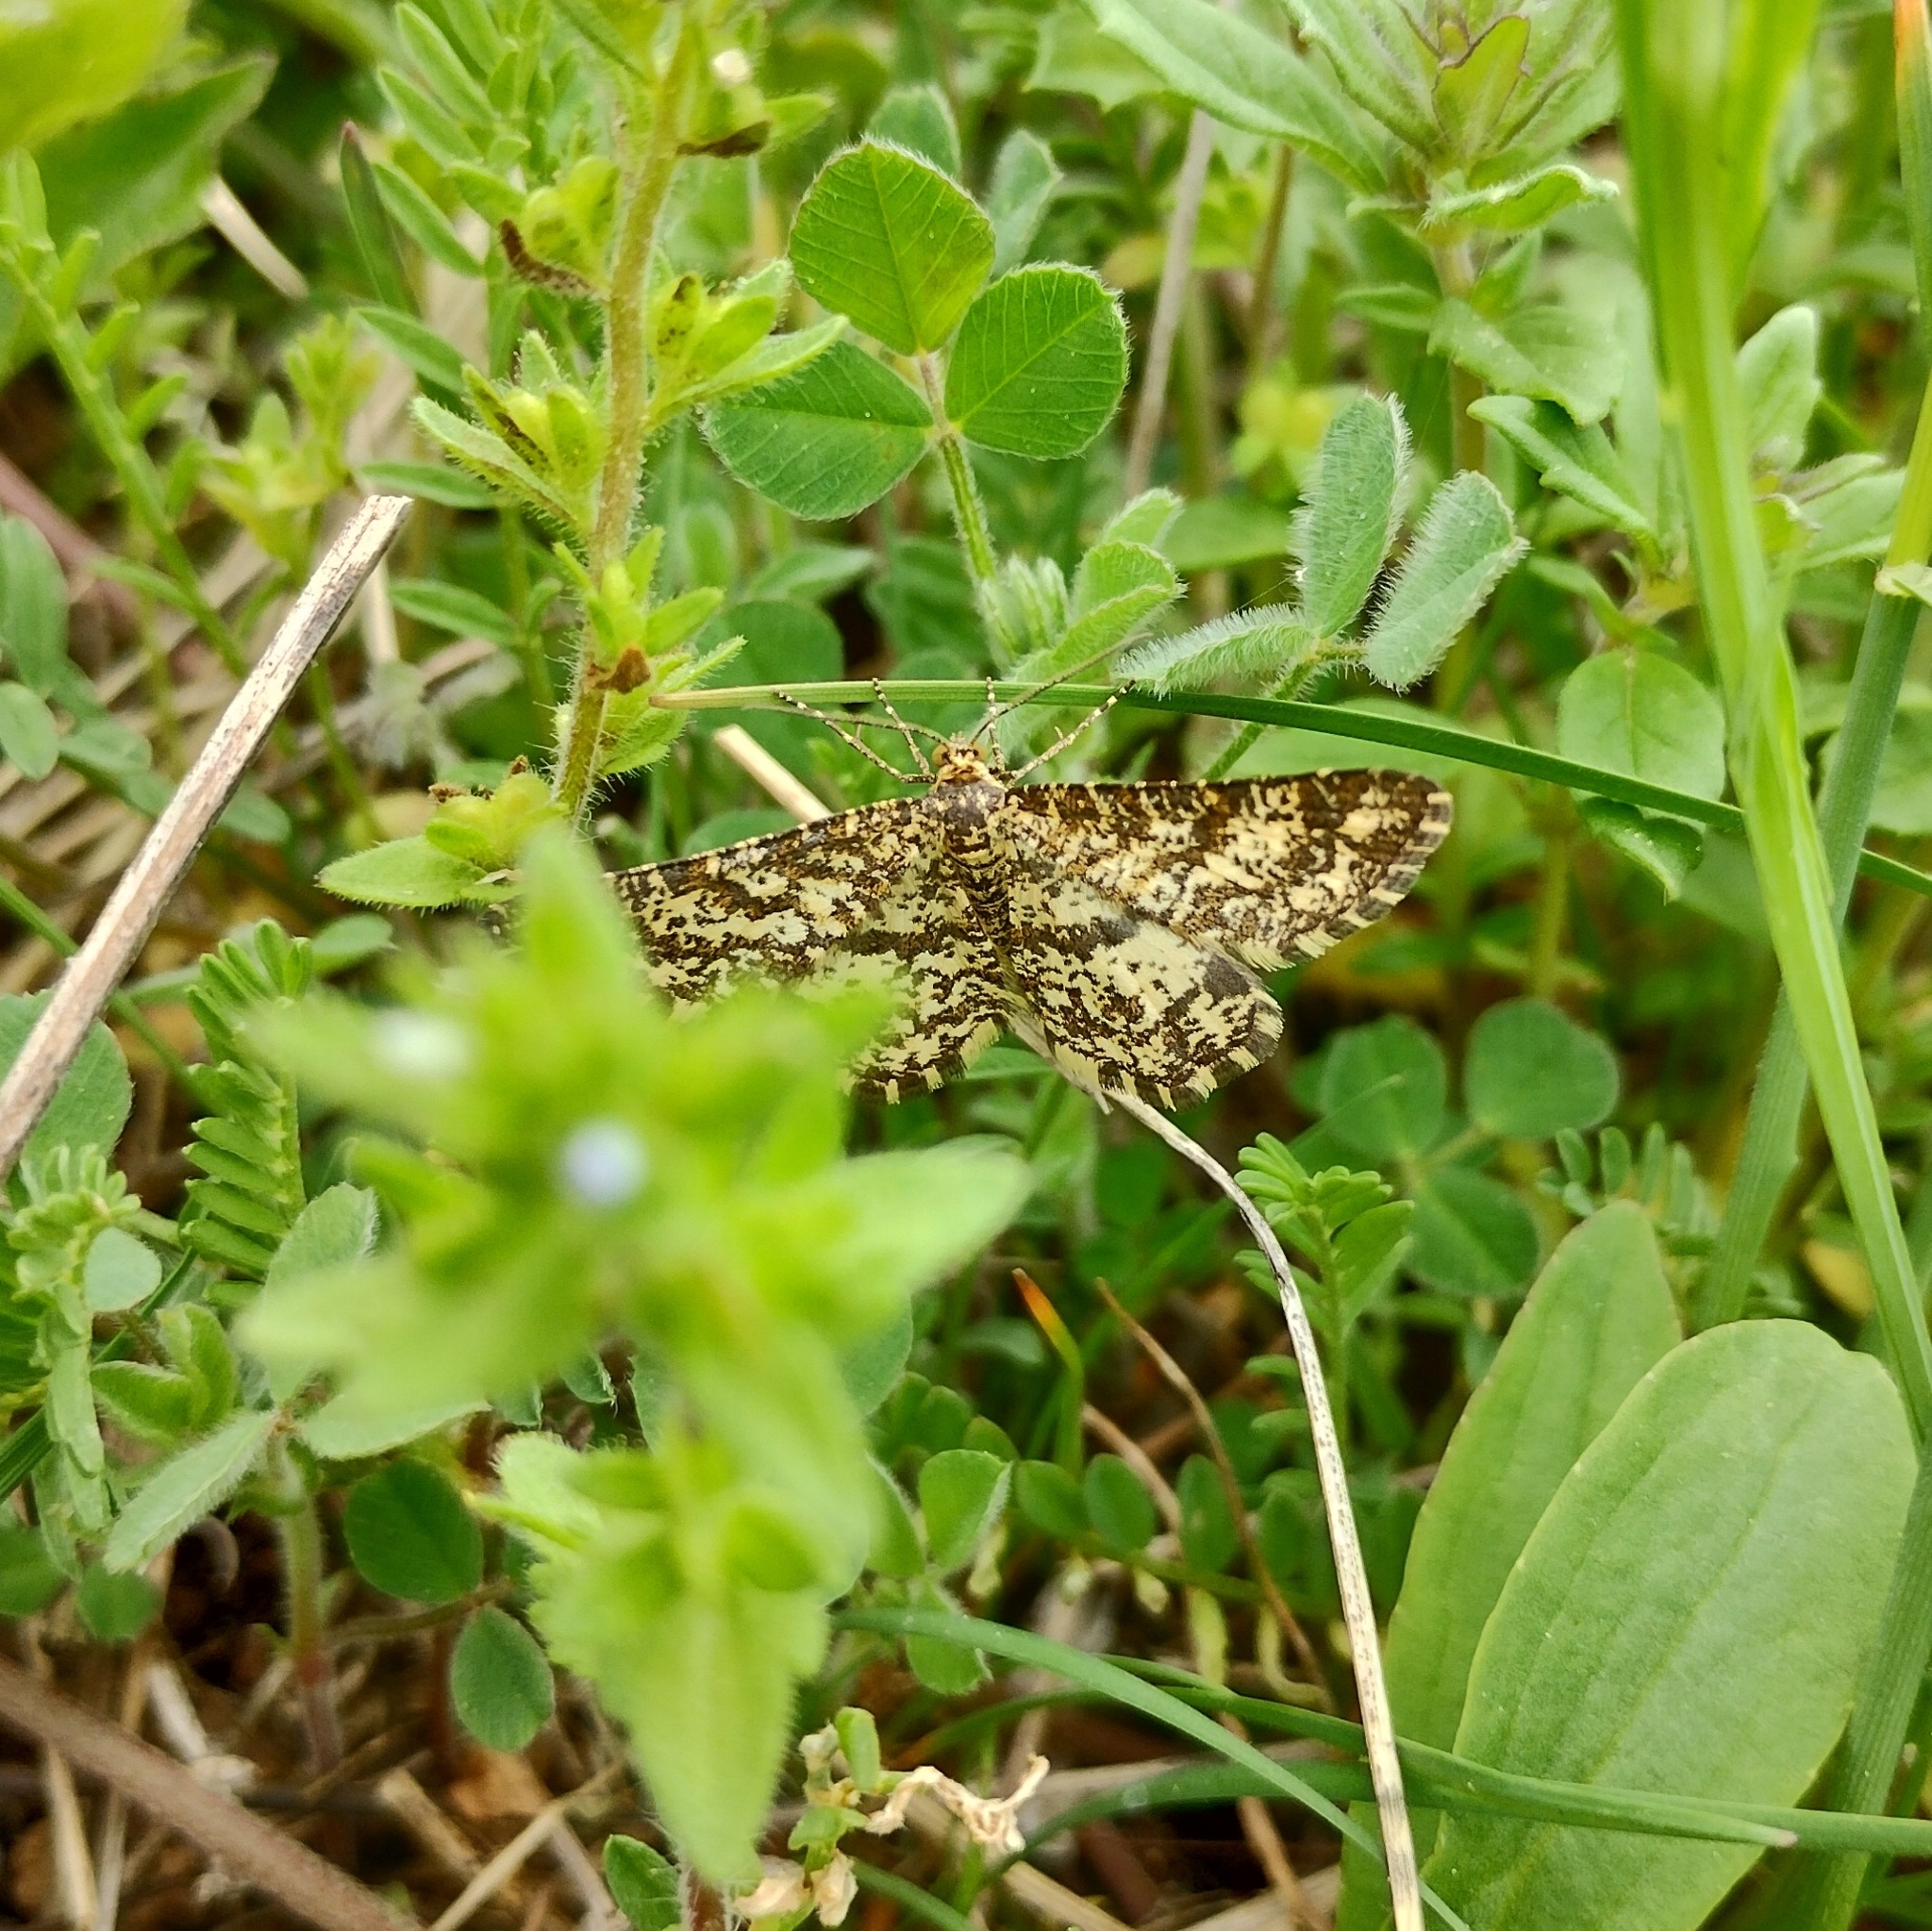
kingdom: Animalia
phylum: Arthropoda
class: Insecta
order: Lepidoptera
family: Geometridae
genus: Heliomata
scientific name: Heliomata glarearia
